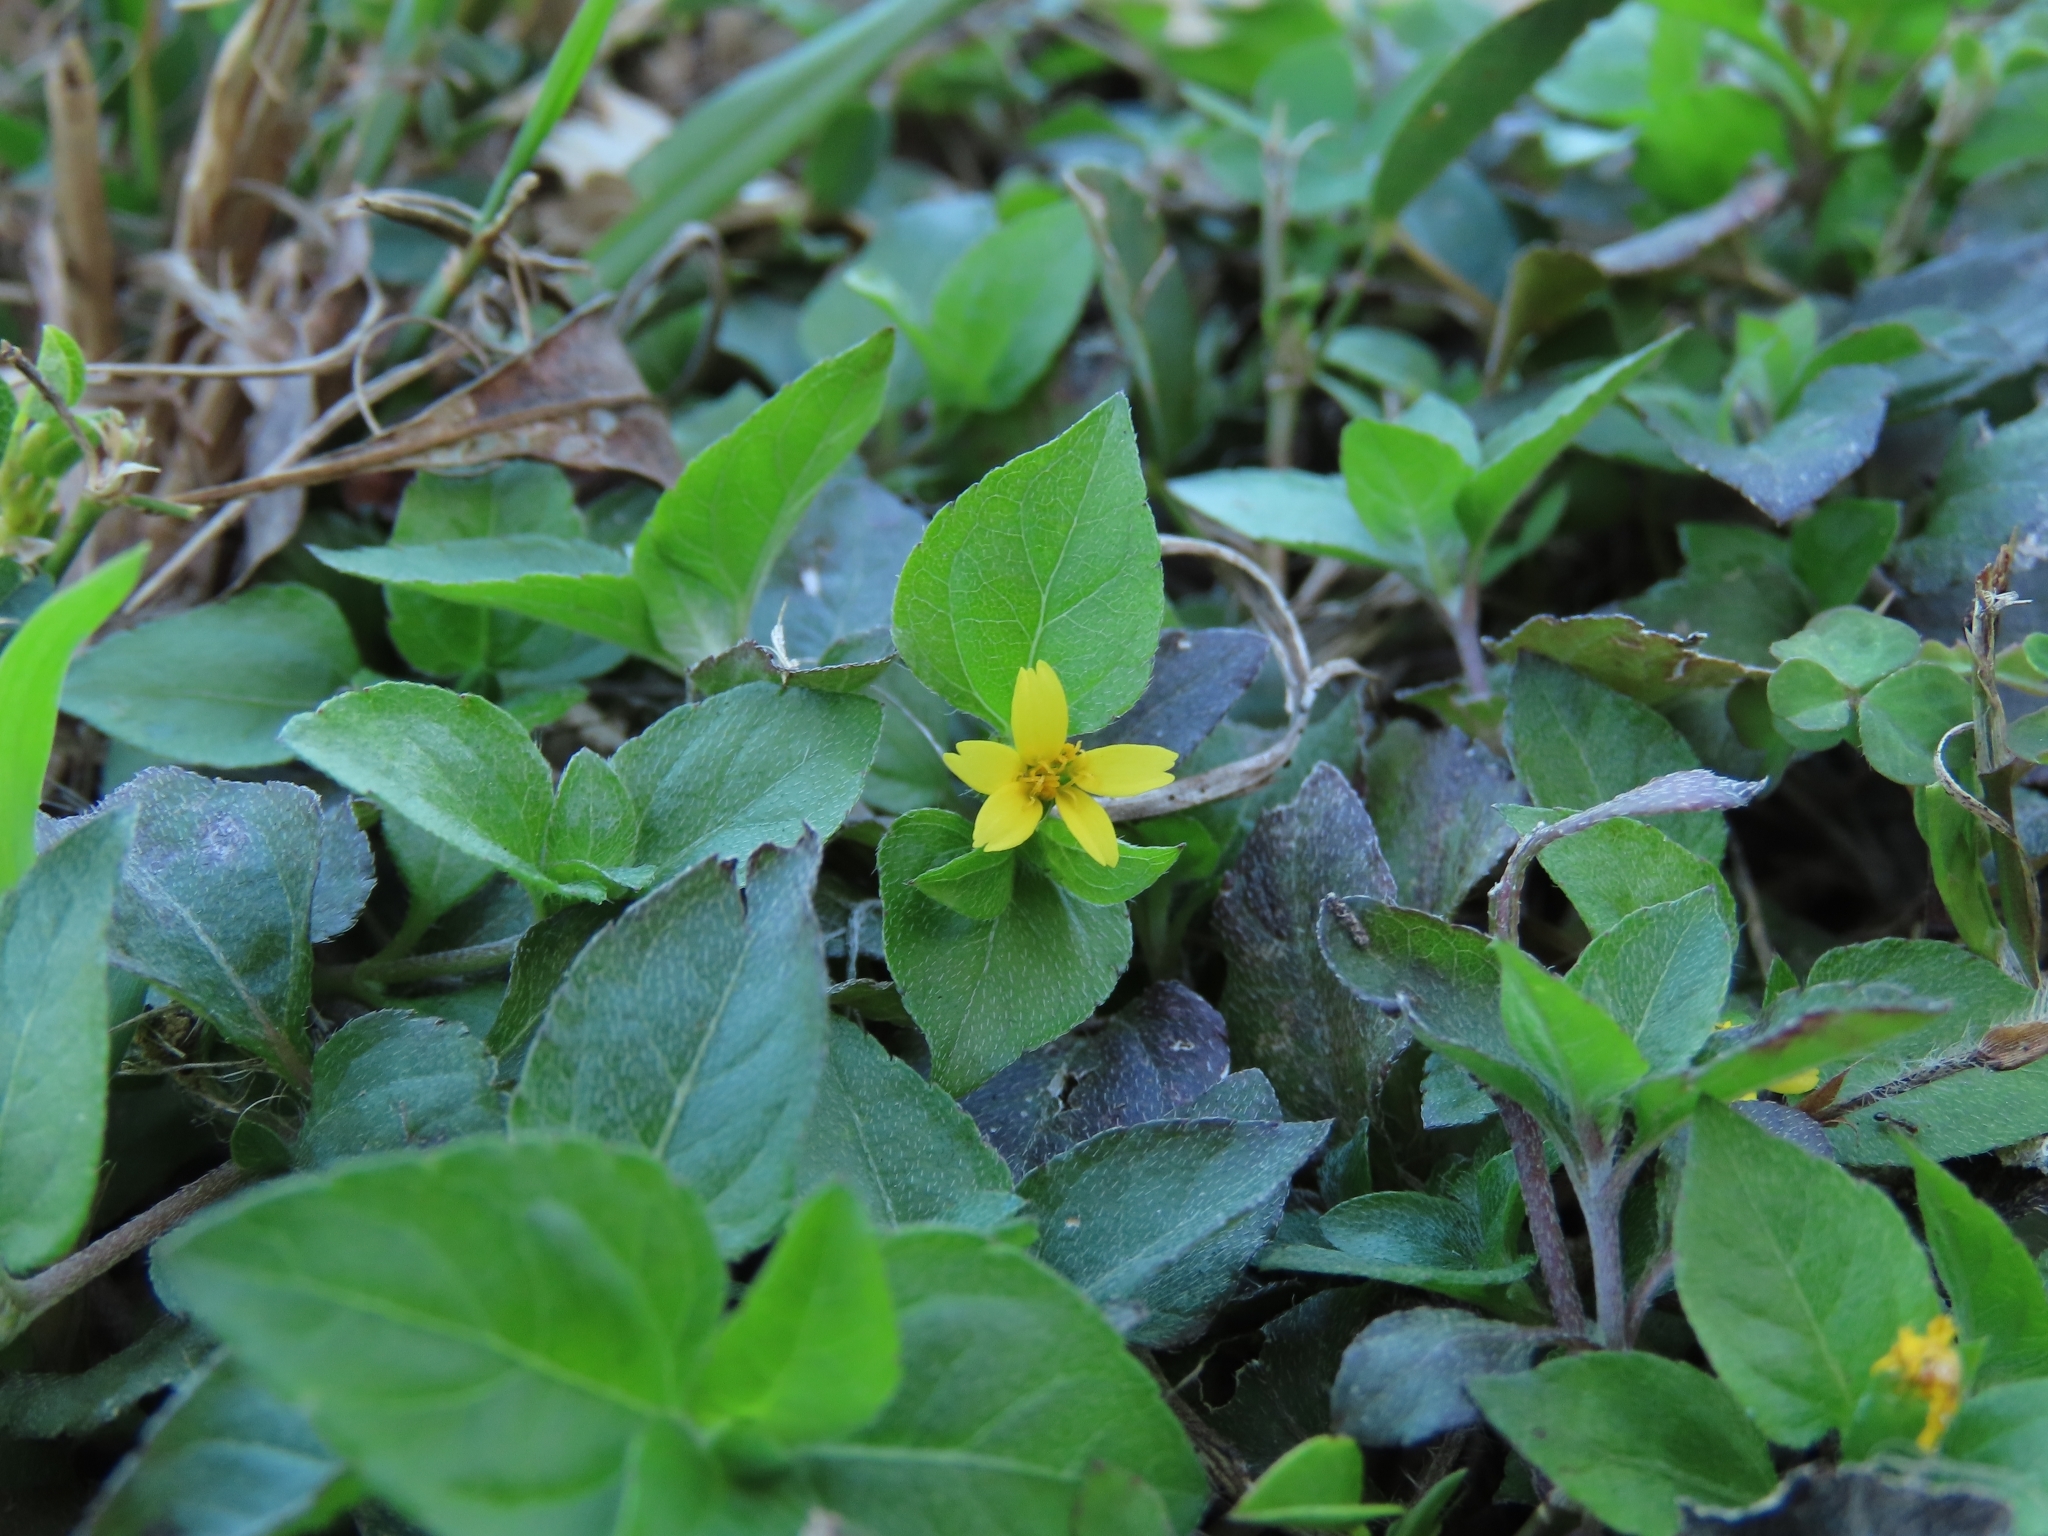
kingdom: Plantae
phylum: Tracheophyta
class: Magnoliopsida
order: Asterales
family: Asteraceae
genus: Calyptocarpus
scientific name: Calyptocarpus vialis
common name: Straggler daisy
